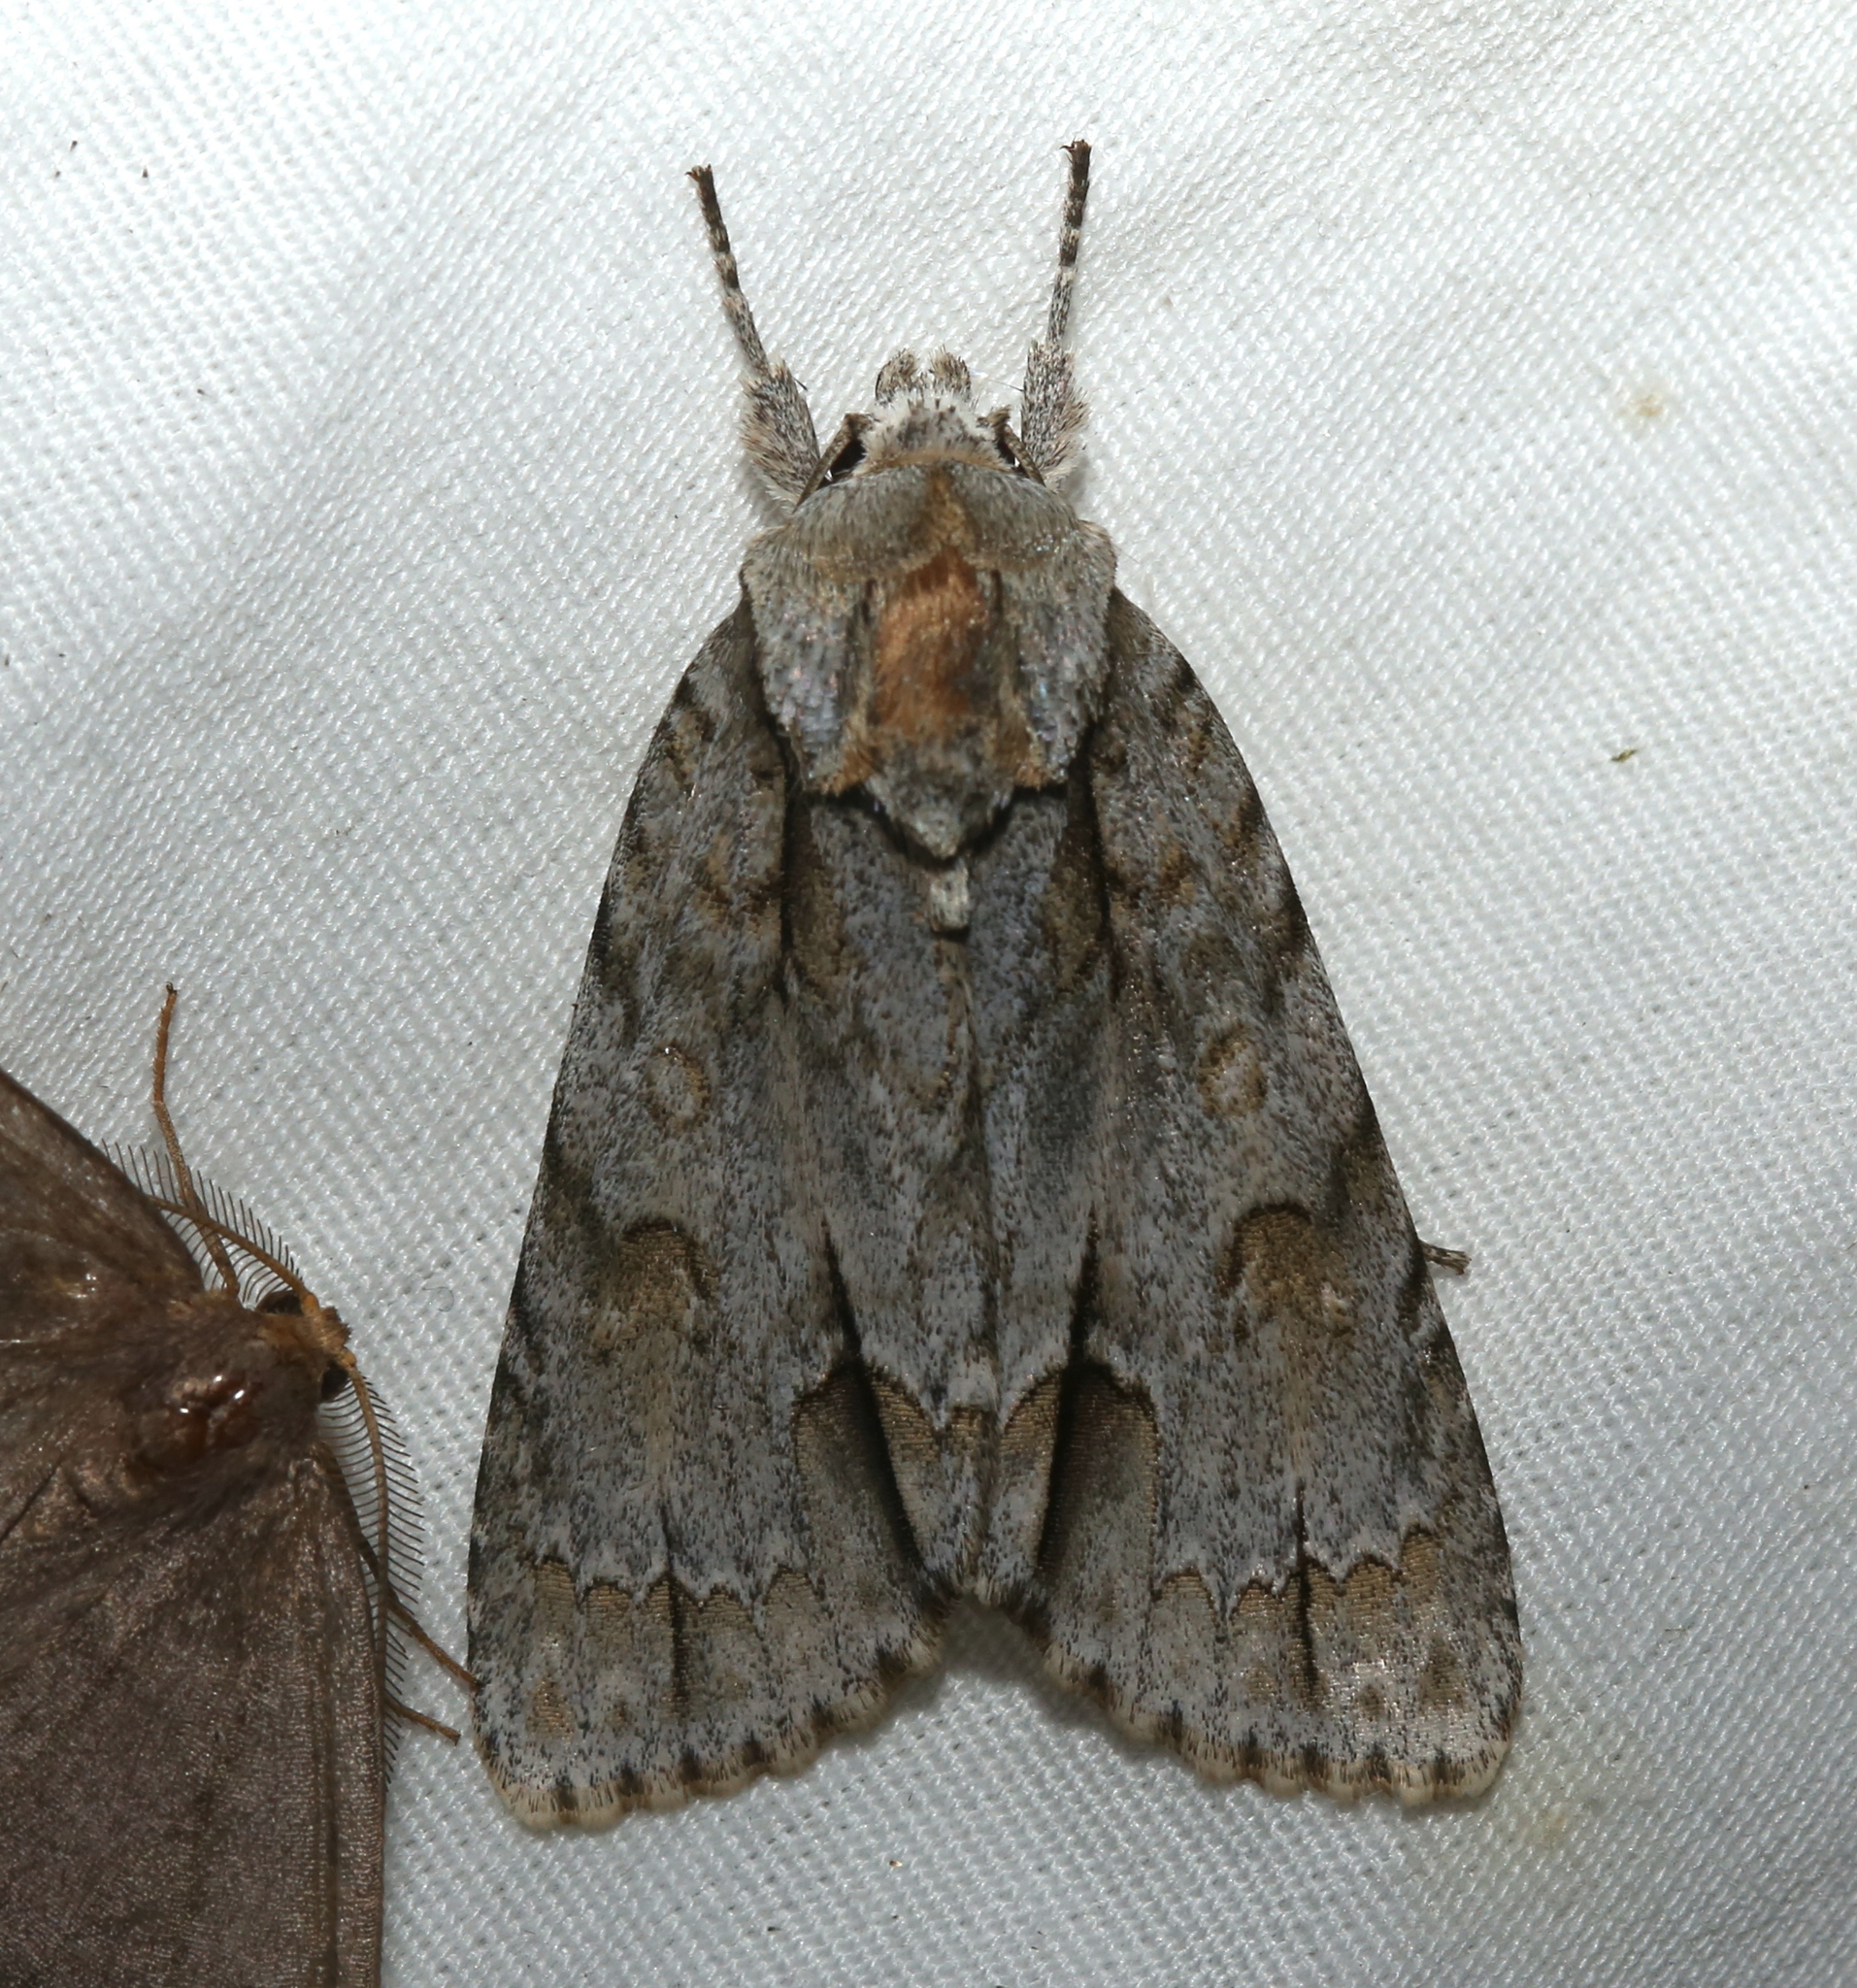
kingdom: Animalia
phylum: Arthropoda
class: Insecta
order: Lepidoptera
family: Noctuidae
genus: Acronicta
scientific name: Acronicta morula
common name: Ochre dagger
